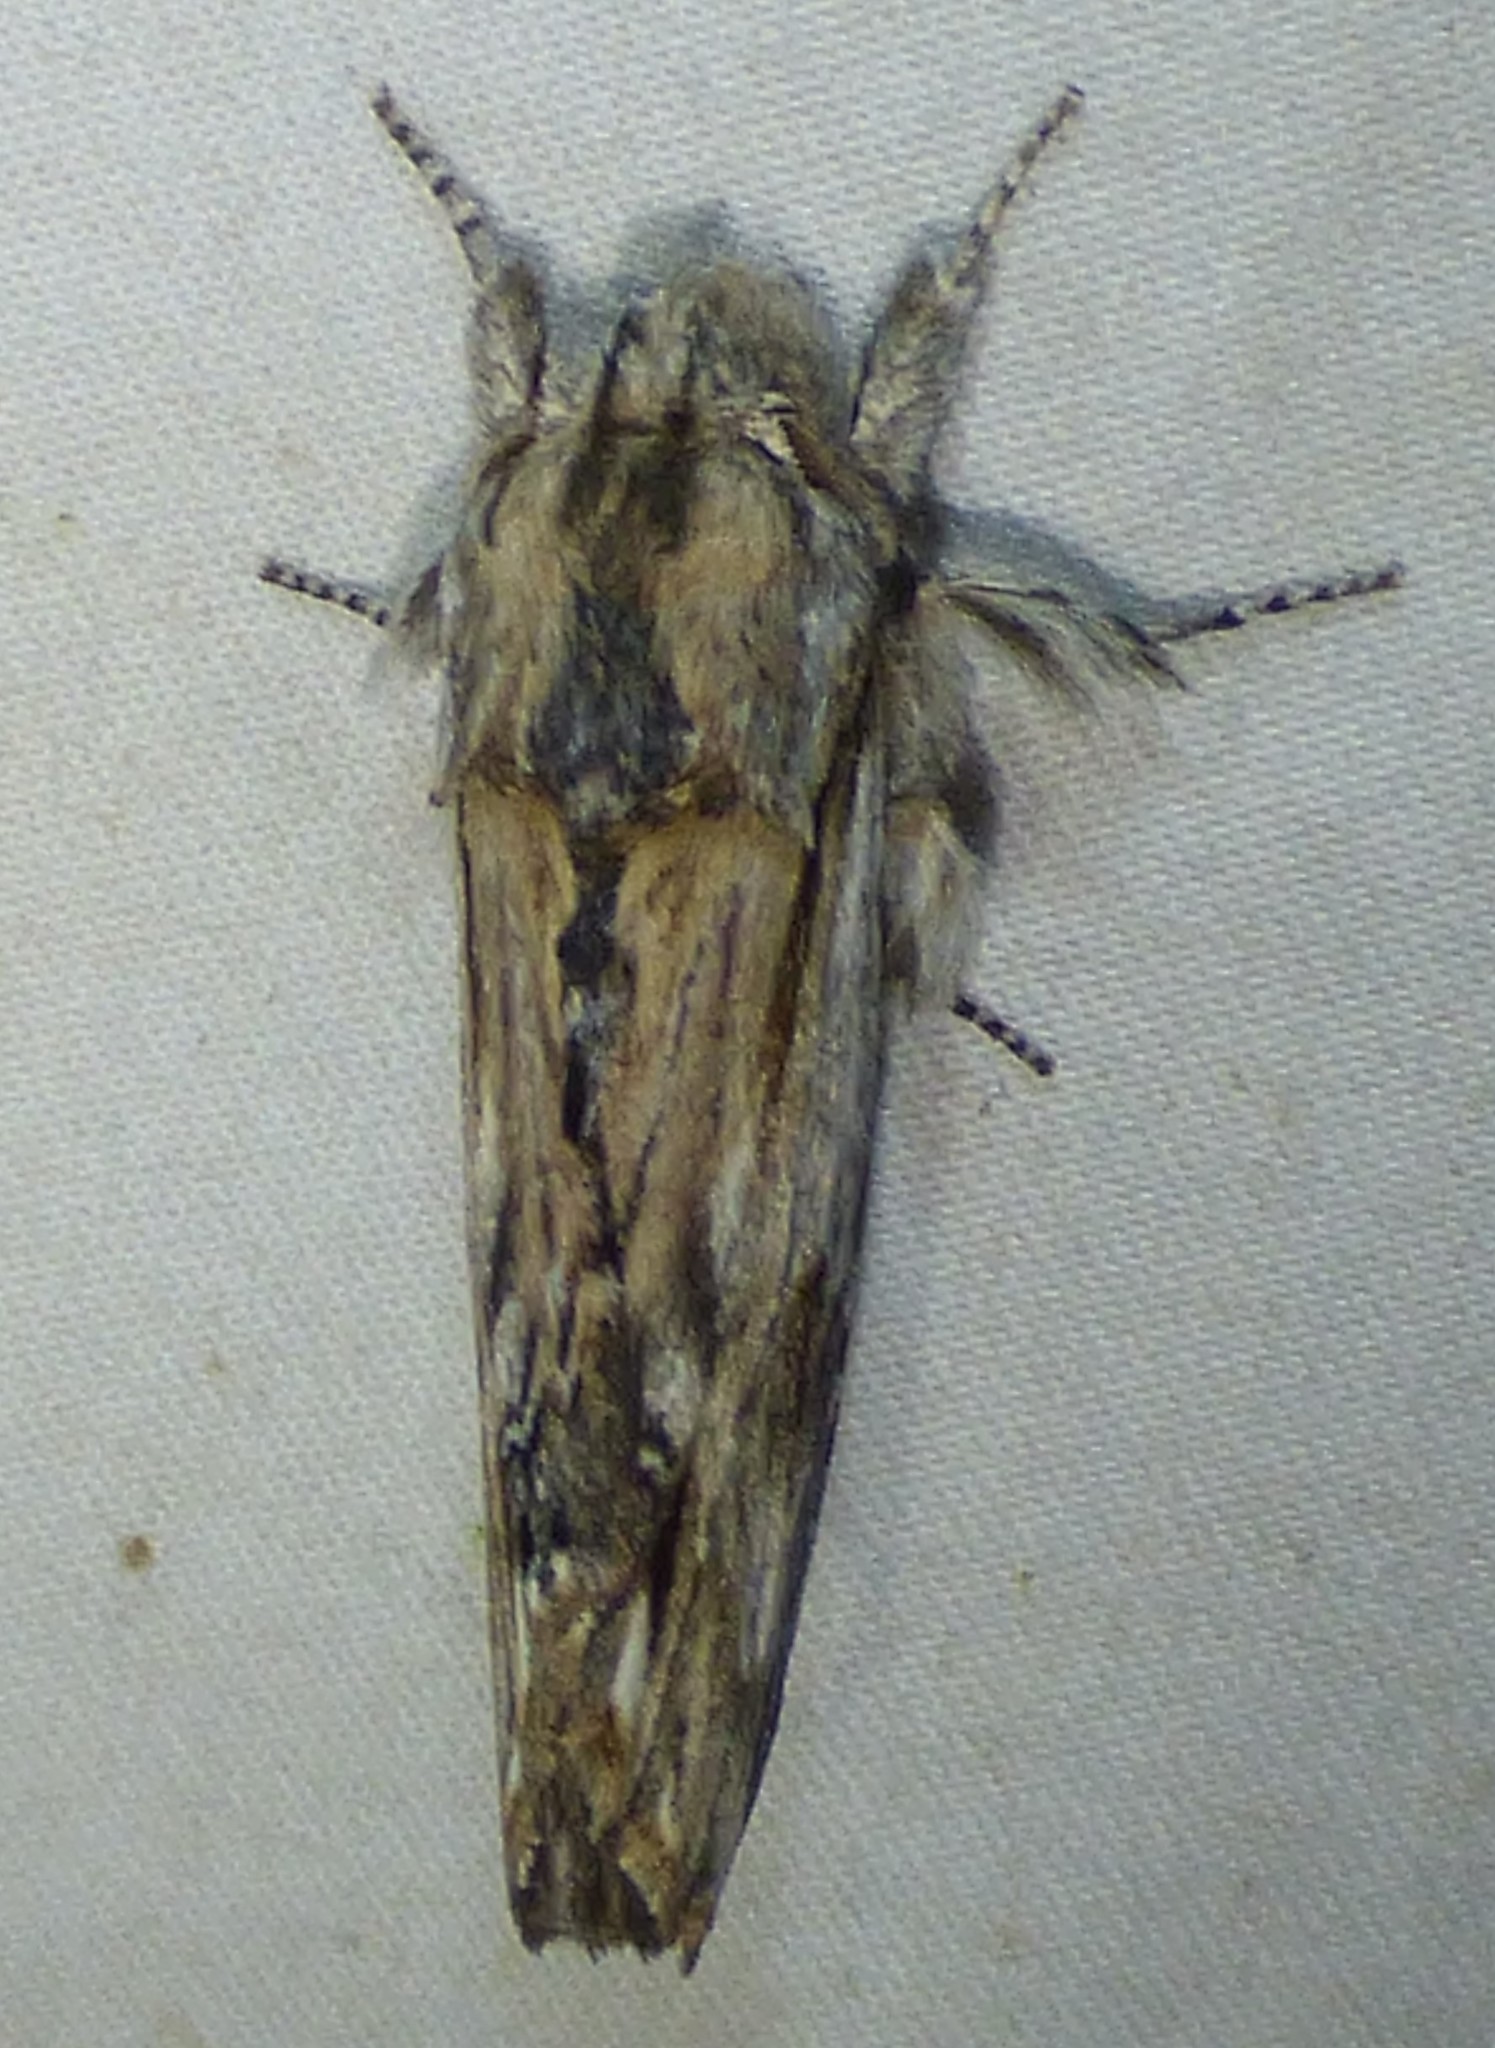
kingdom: Animalia
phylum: Arthropoda
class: Insecta
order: Lepidoptera
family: Notodontidae
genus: Oligocentria
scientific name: Oligocentria Ianassa lignicolor
